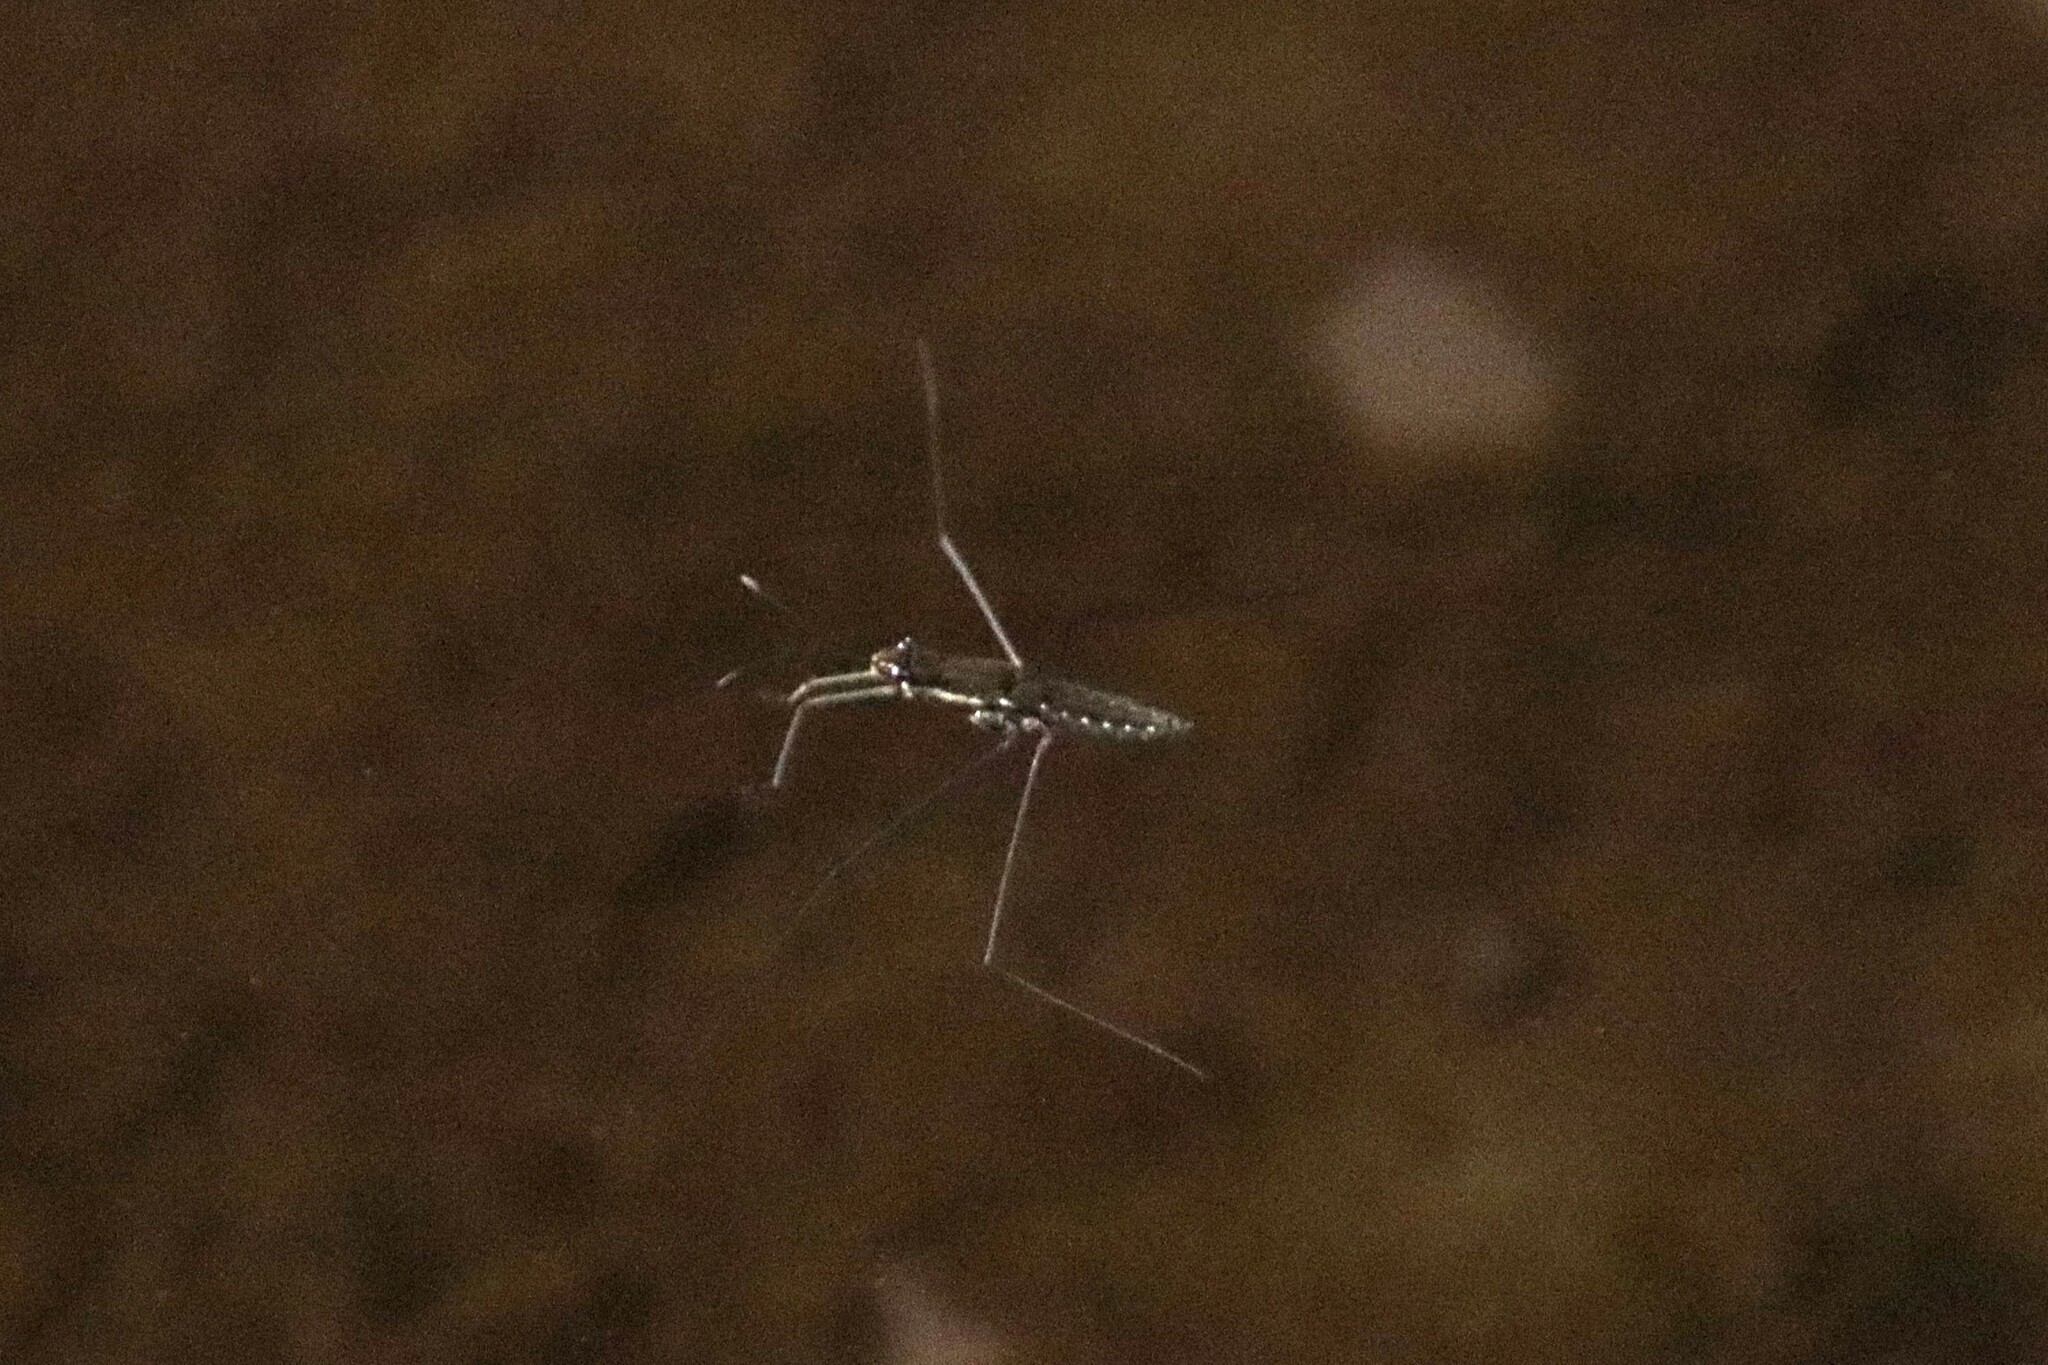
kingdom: Animalia
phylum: Arthropoda
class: Insecta
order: Hemiptera
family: Gerridae
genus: Aquarius
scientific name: Aquarius chilensis
